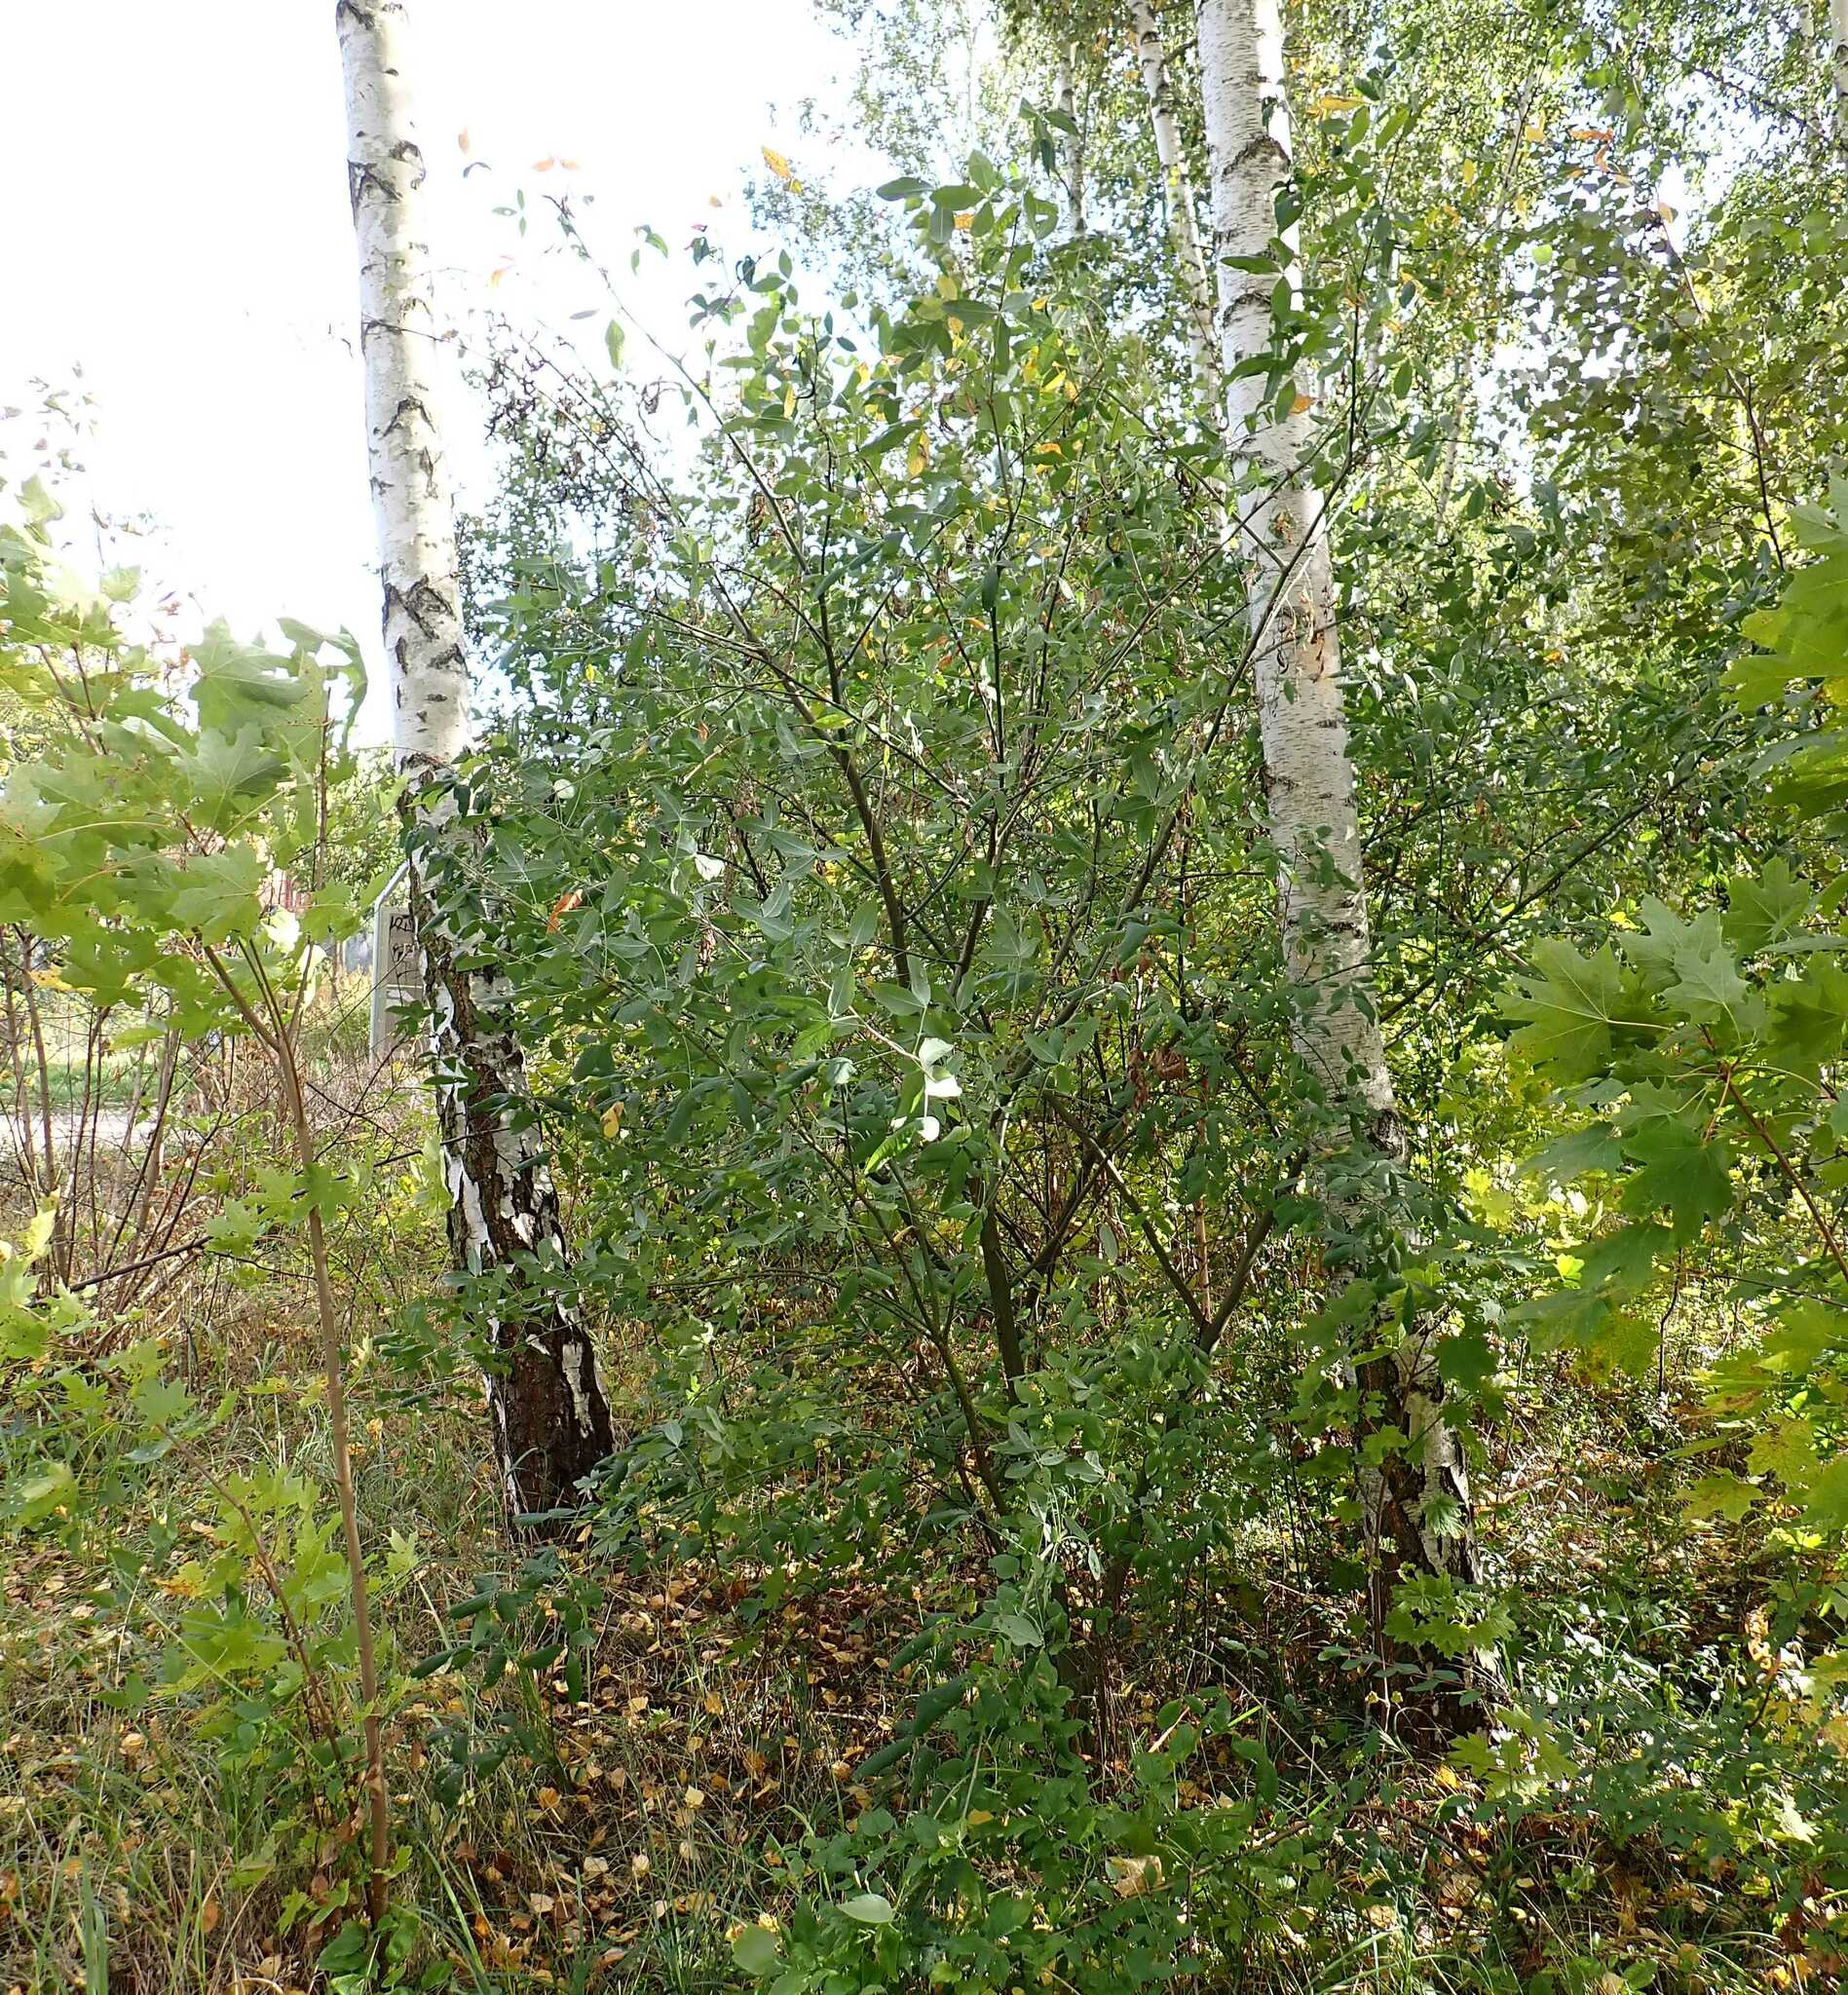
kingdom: Plantae
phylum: Tracheophyta
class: Magnoliopsida
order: Fabales
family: Fabaceae
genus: Laburnum
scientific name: Laburnum anagyroides
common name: Laburnum
